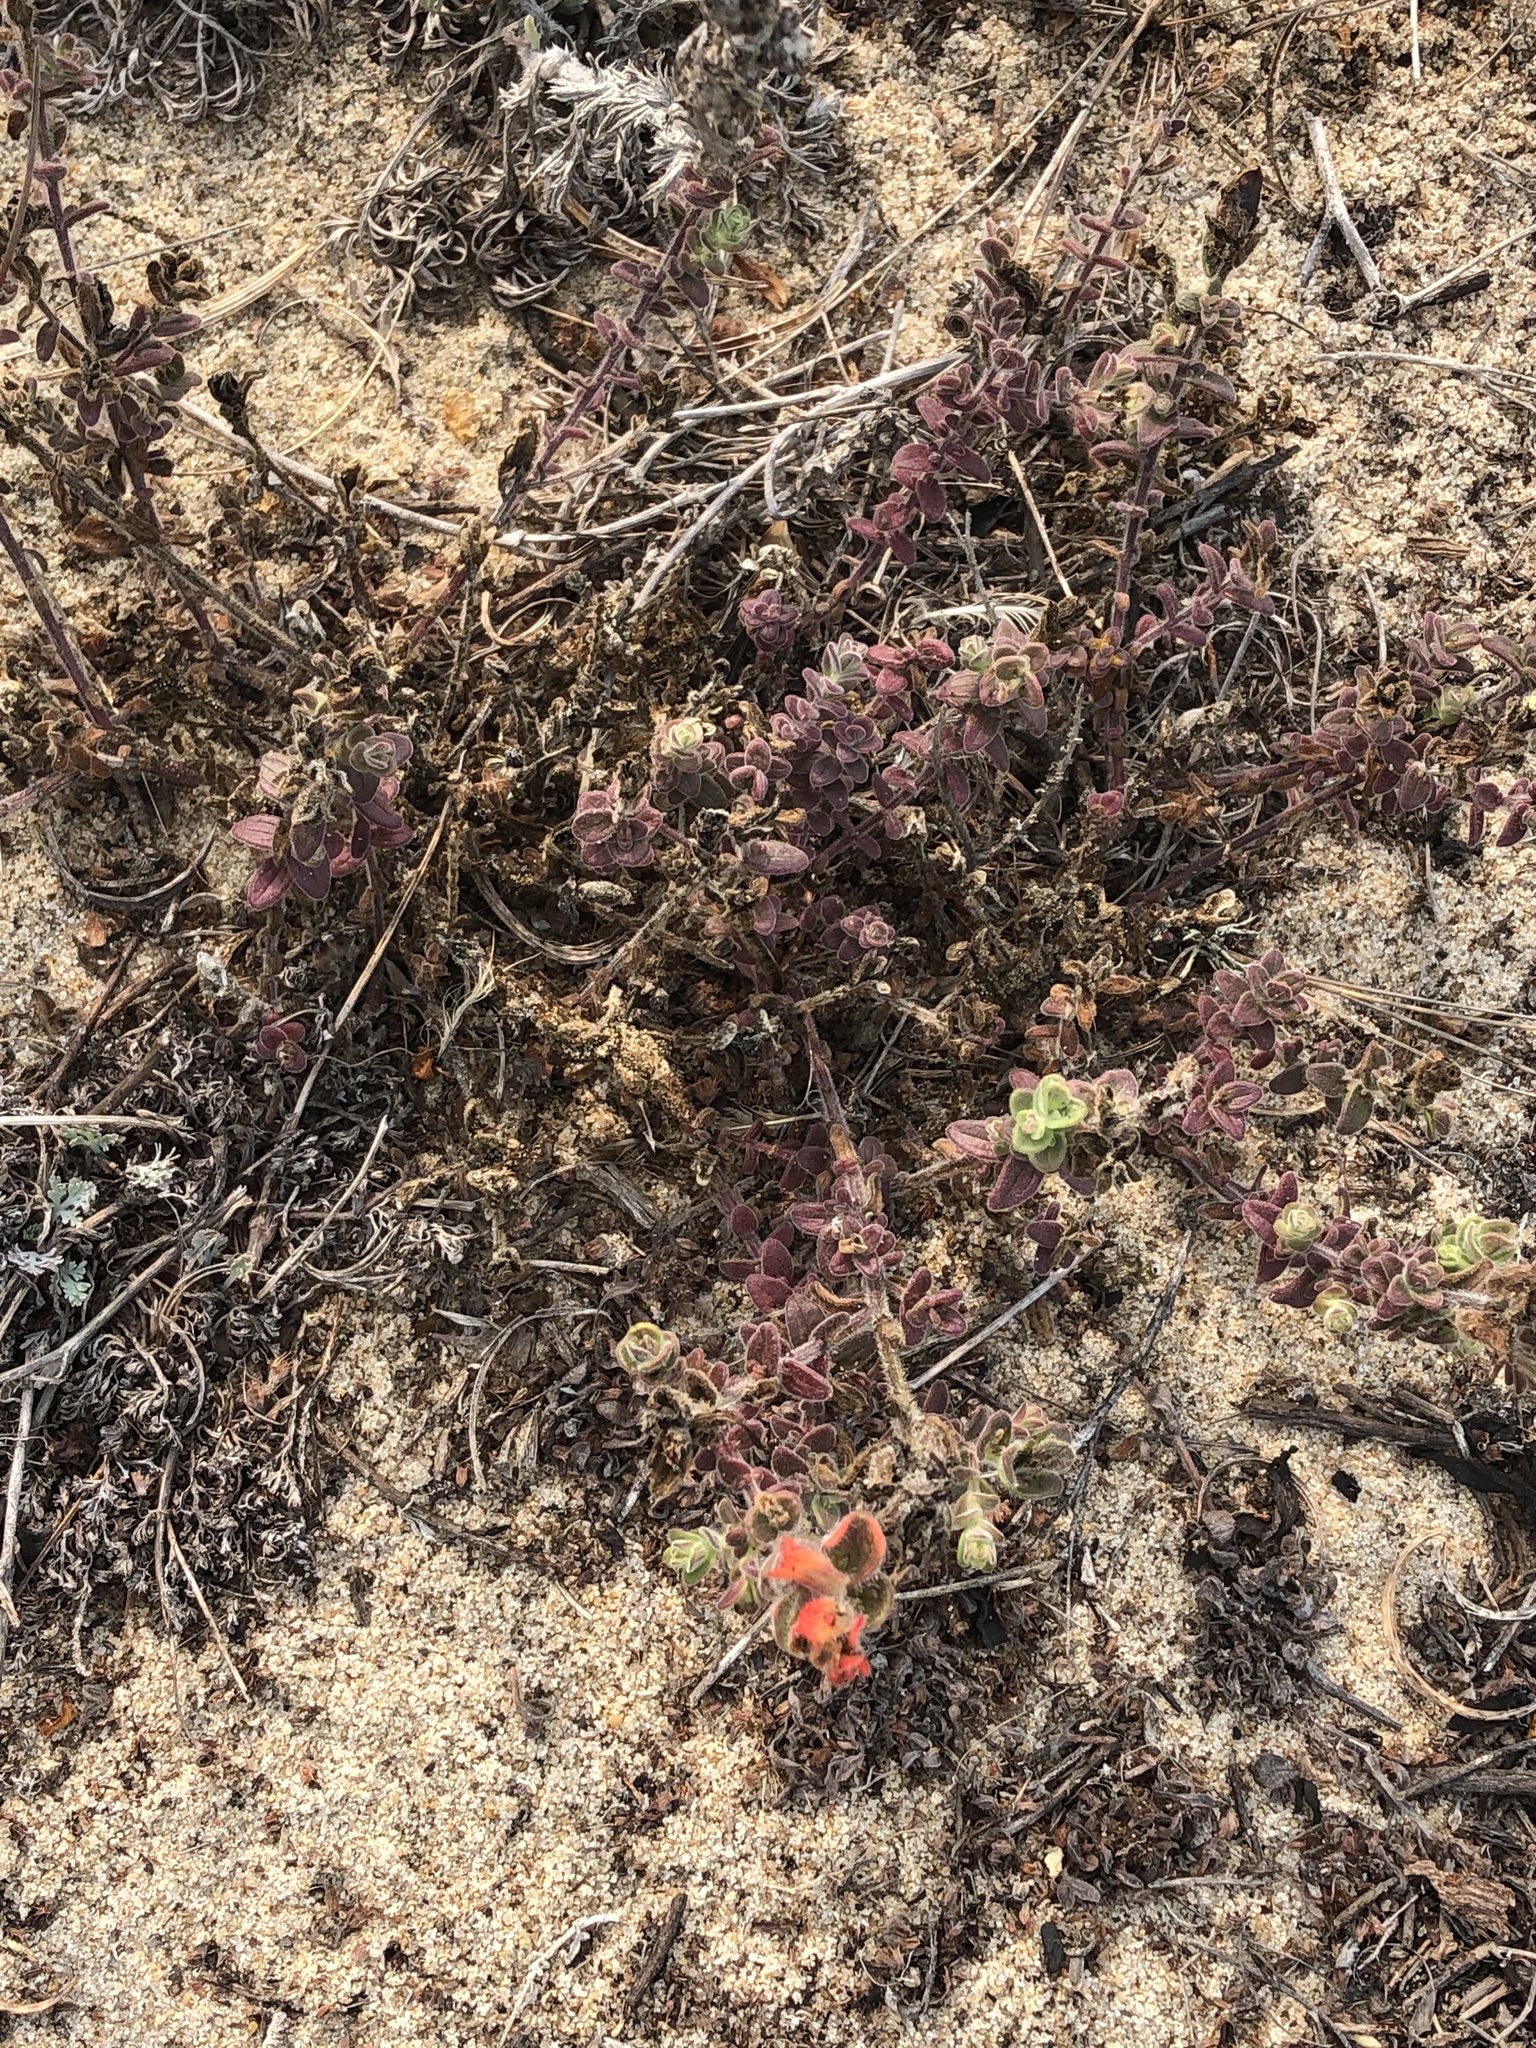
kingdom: Plantae
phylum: Tracheophyta
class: Magnoliopsida
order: Lamiales
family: Orobanchaceae
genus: Castilleja
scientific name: Castilleja latifolia
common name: Monterey indian paintbrush
